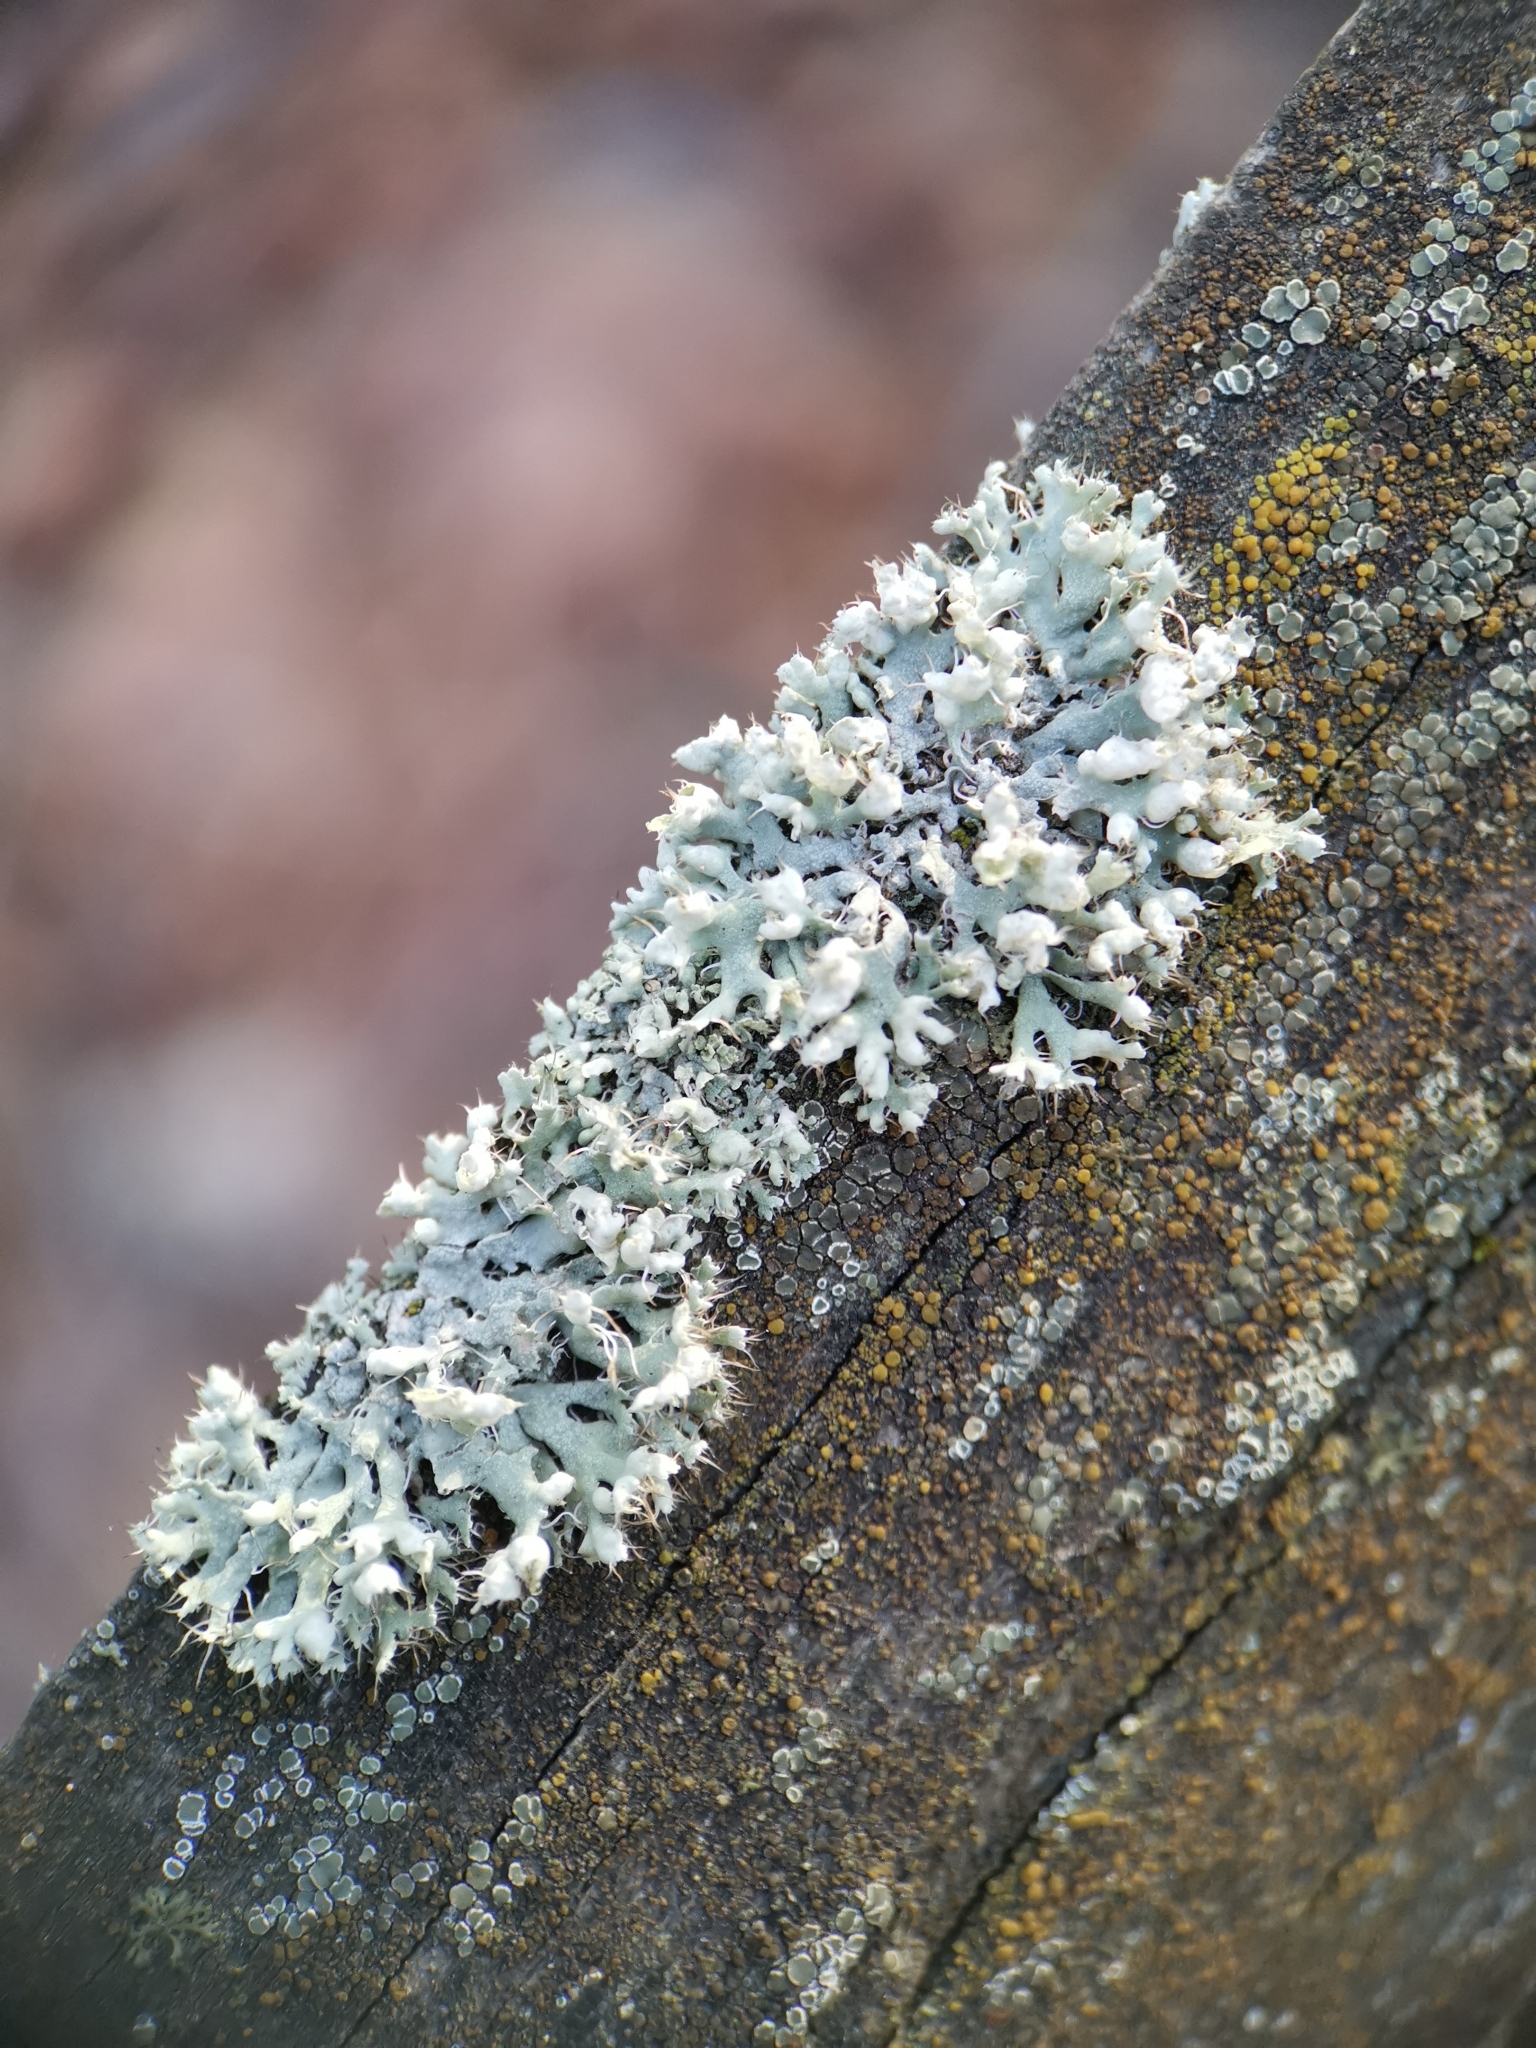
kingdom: Fungi
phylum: Ascomycota
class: Lecanoromycetes
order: Caliciales
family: Physciaceae
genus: Physcia
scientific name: Physcia adscendens
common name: Hooded rosette lichen
